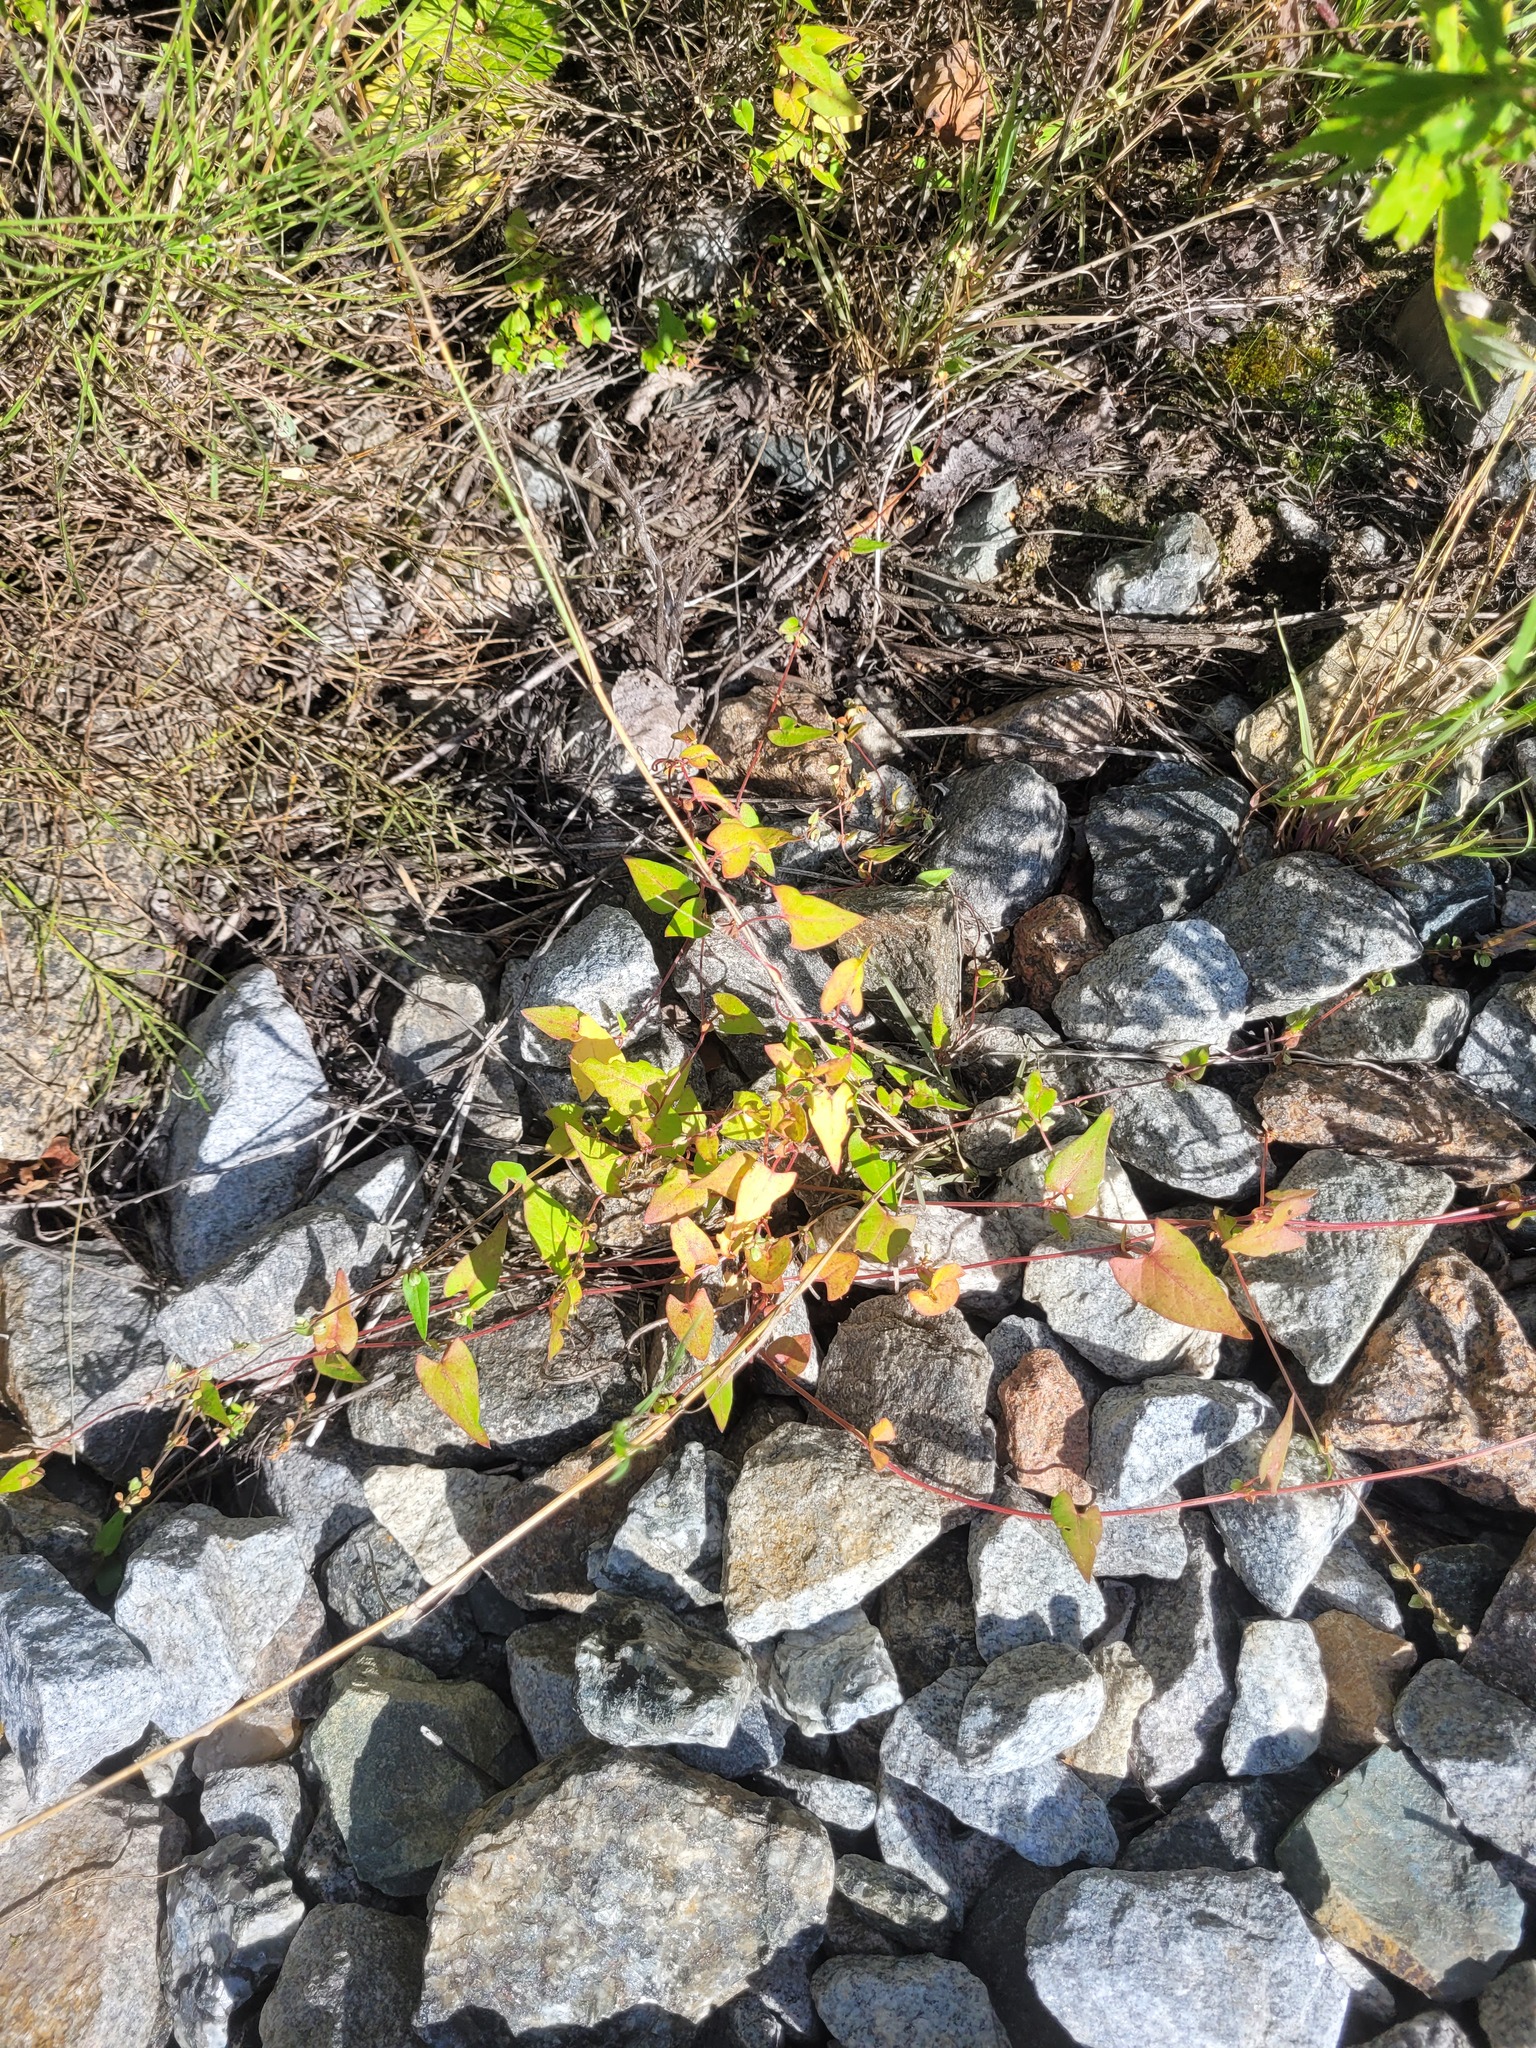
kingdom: Plantae
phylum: Tracheophyta
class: Magnoliopsida
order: Caryophyllales
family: Polygonaceae
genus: Fallopia
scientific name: Fallopia convolvulus
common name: Black bindweed
